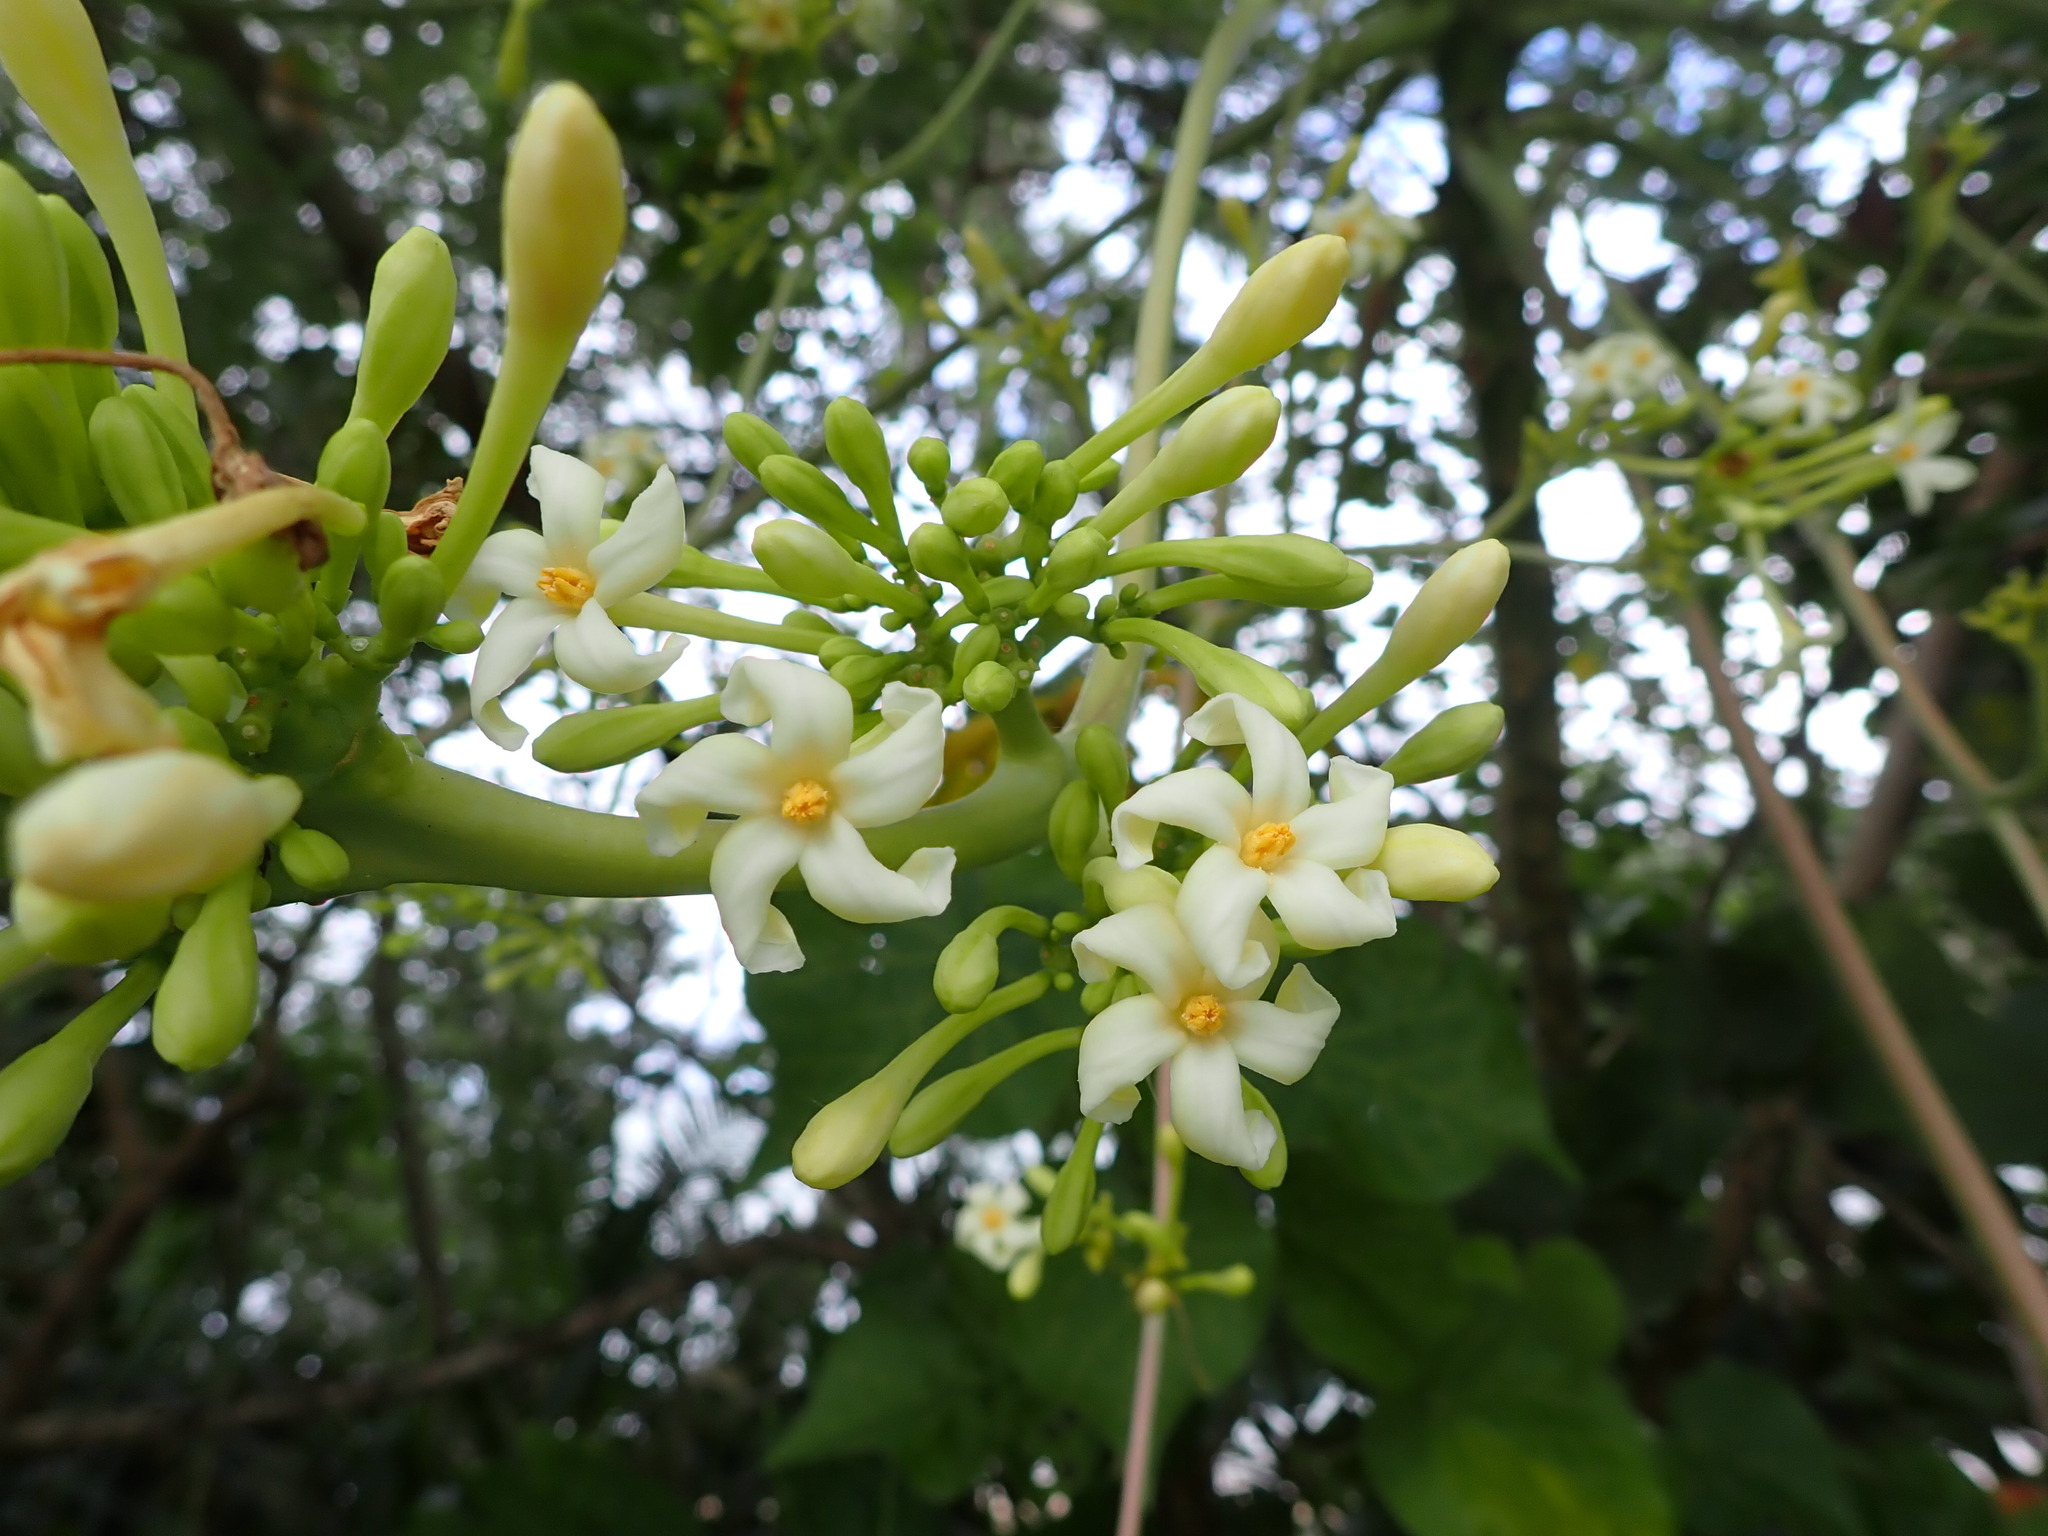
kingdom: Plantae
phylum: Tracheophyta
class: Magnoliopsida
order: Brassicales
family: Caricaceae
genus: Carica
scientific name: Carica papaya
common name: Papaya
